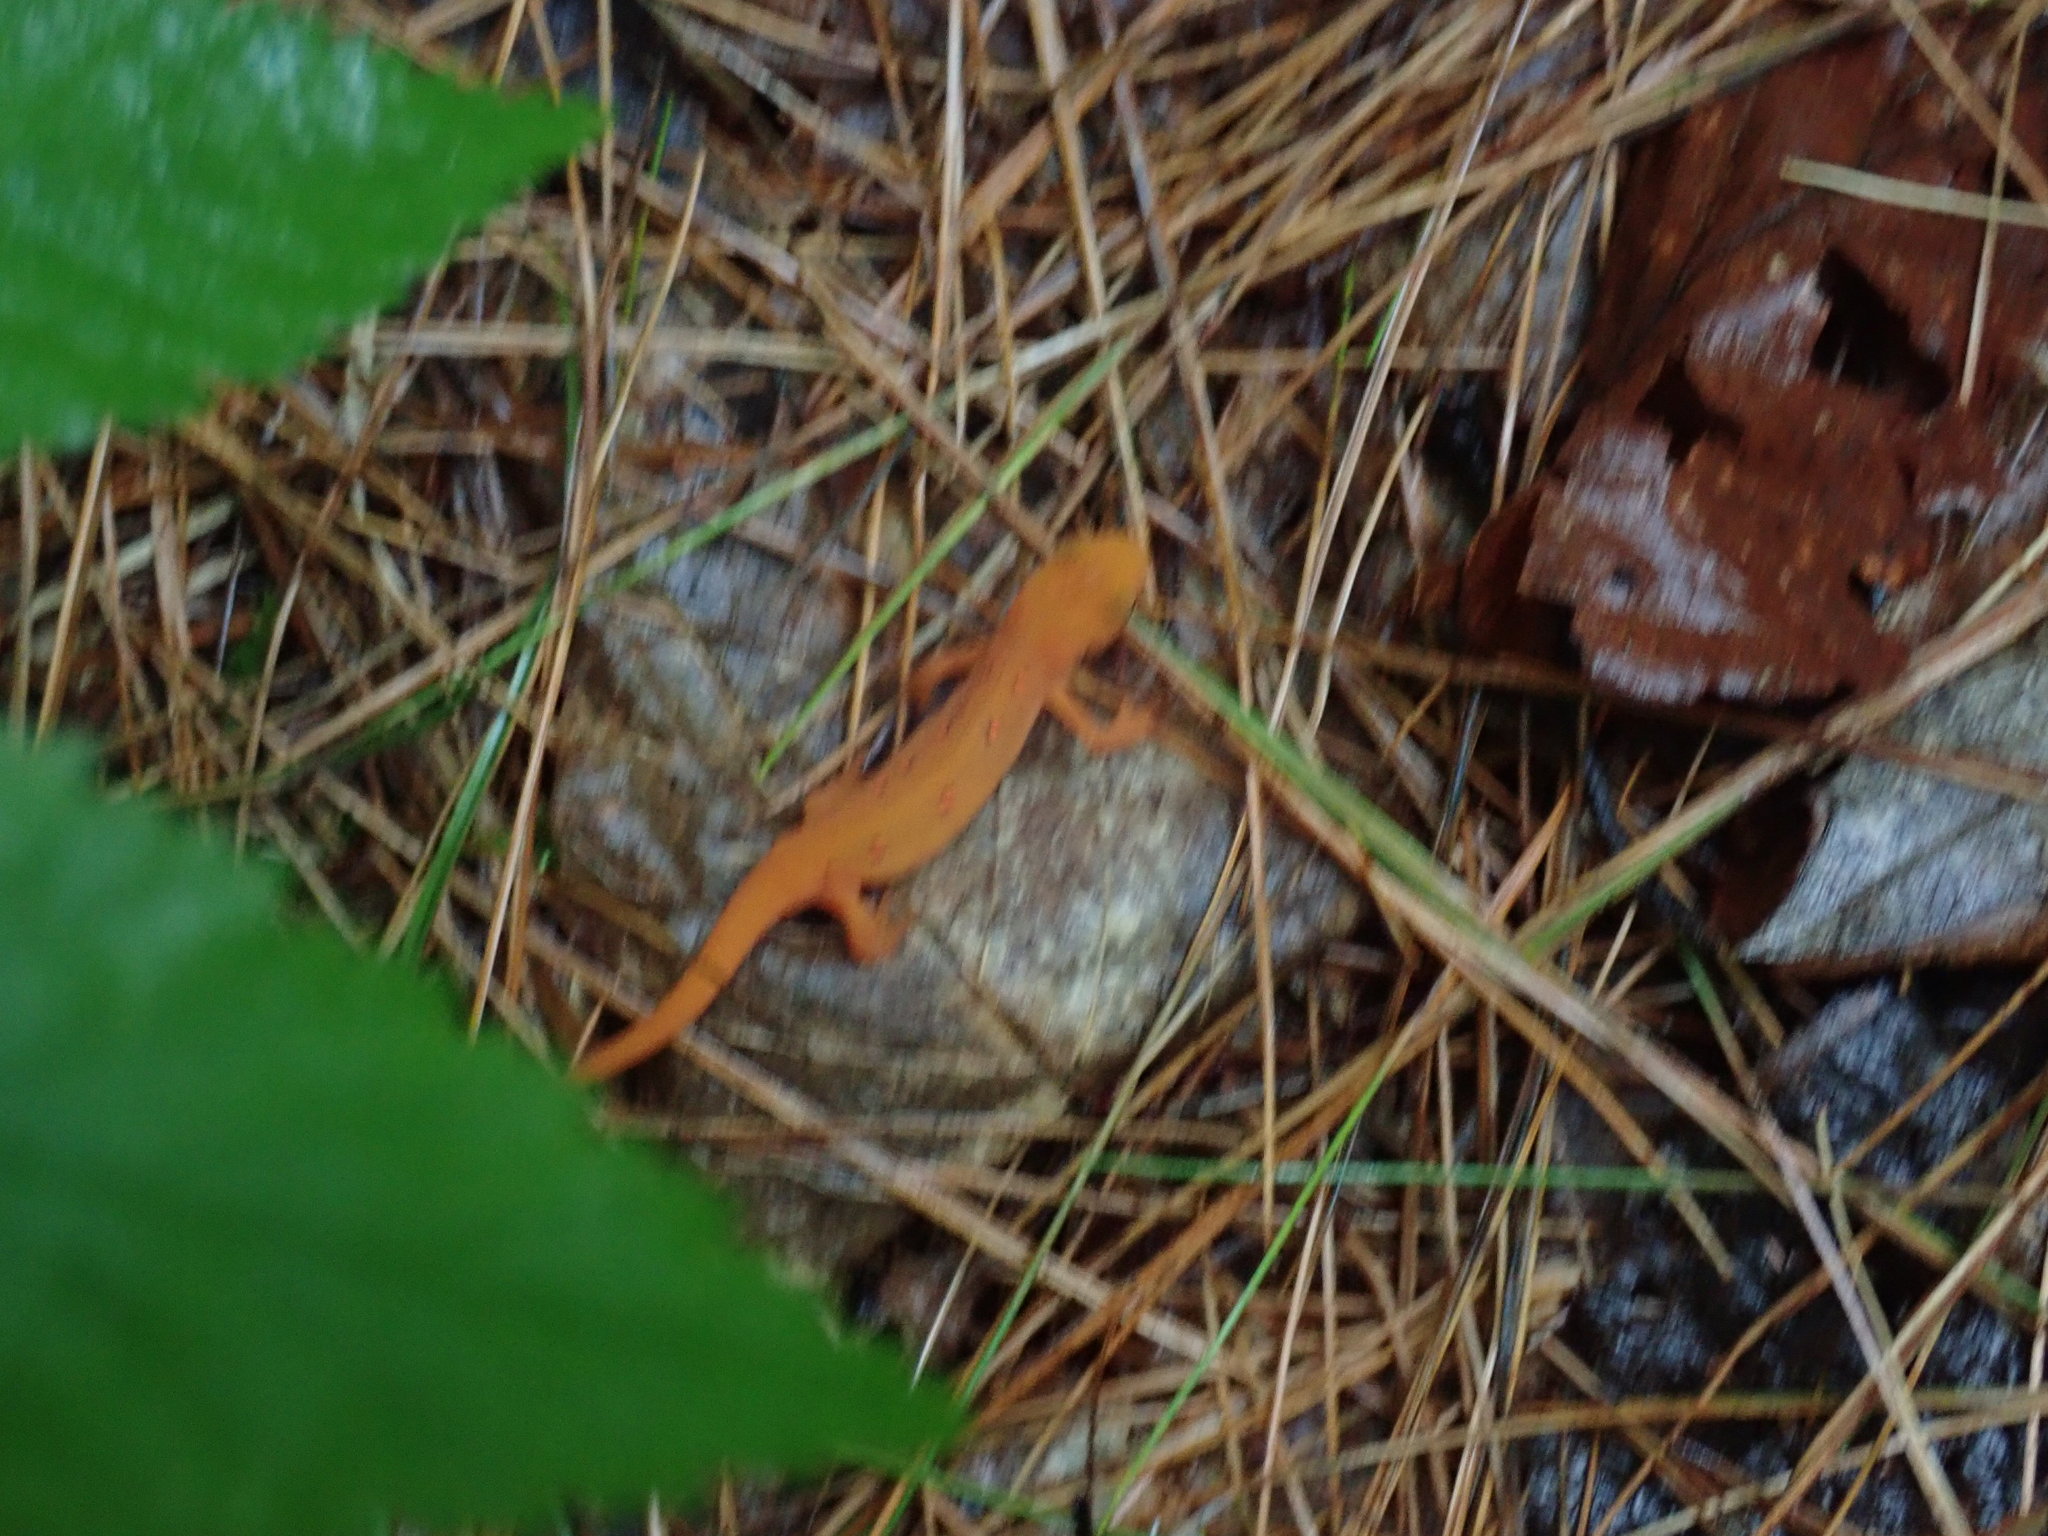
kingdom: Animalia
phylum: Chordata
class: Amphibia
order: Caudata
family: Salamandridae
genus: Notophthalmus
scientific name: Notophthalmus viridescens
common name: Eastern newt
